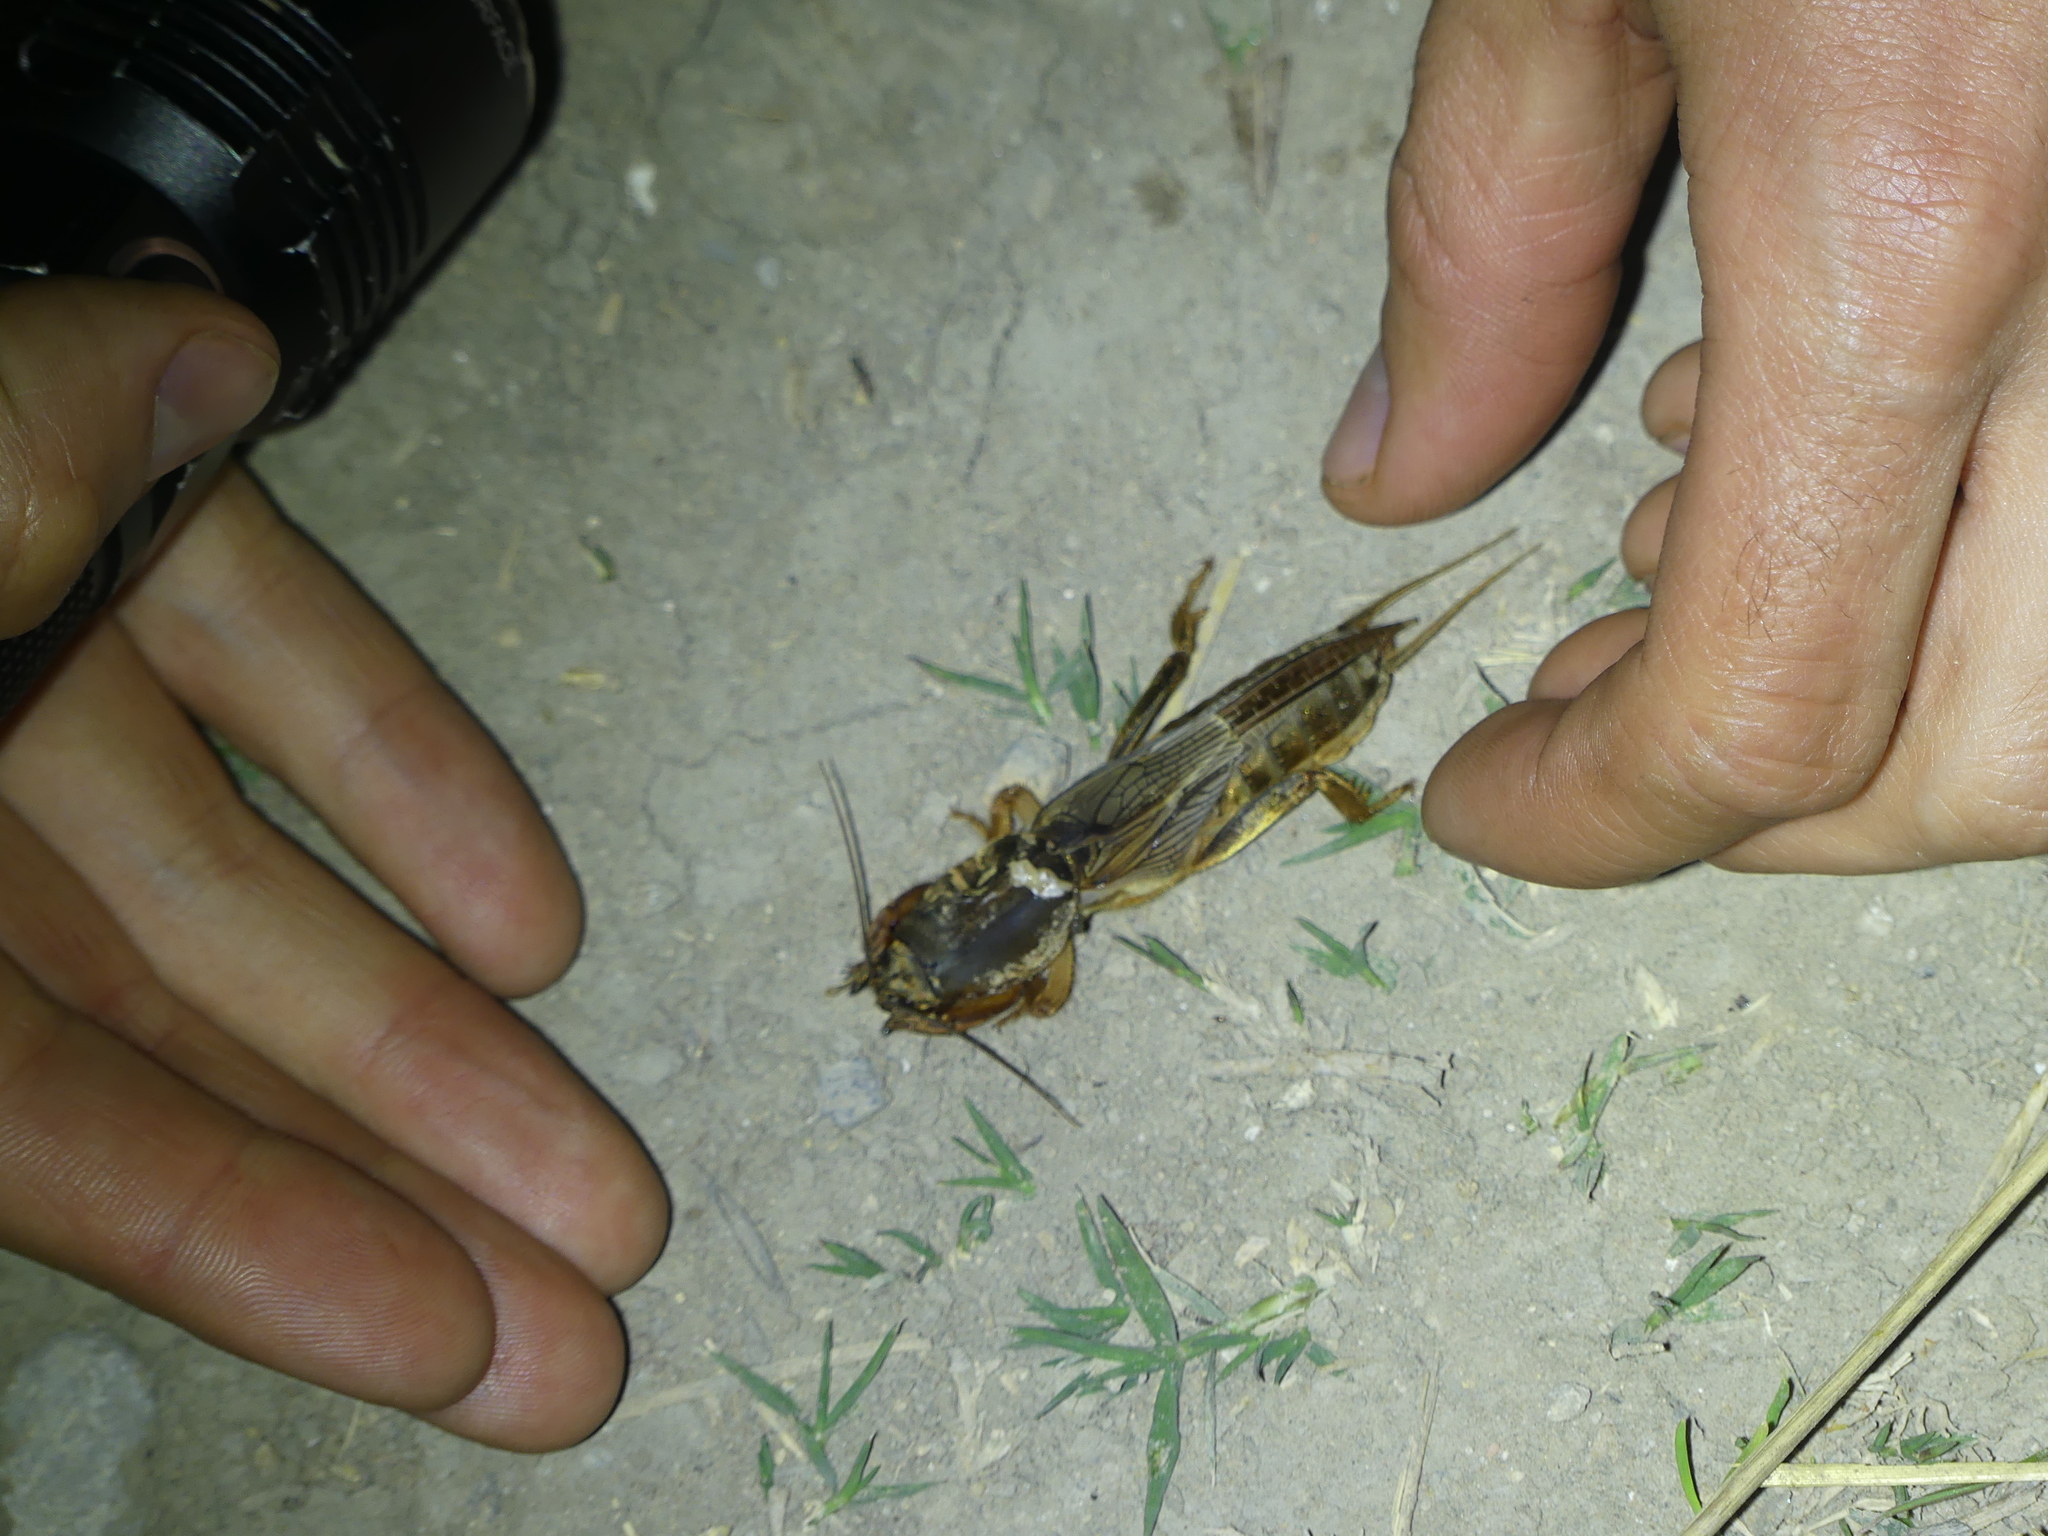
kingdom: Animalia
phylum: Arthropoda
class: Insecta
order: Orthoptera
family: Gryllotalpidae
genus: Gryllotalpa
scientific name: Gryllotalpa vineae
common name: Vineyard mole-cricket
